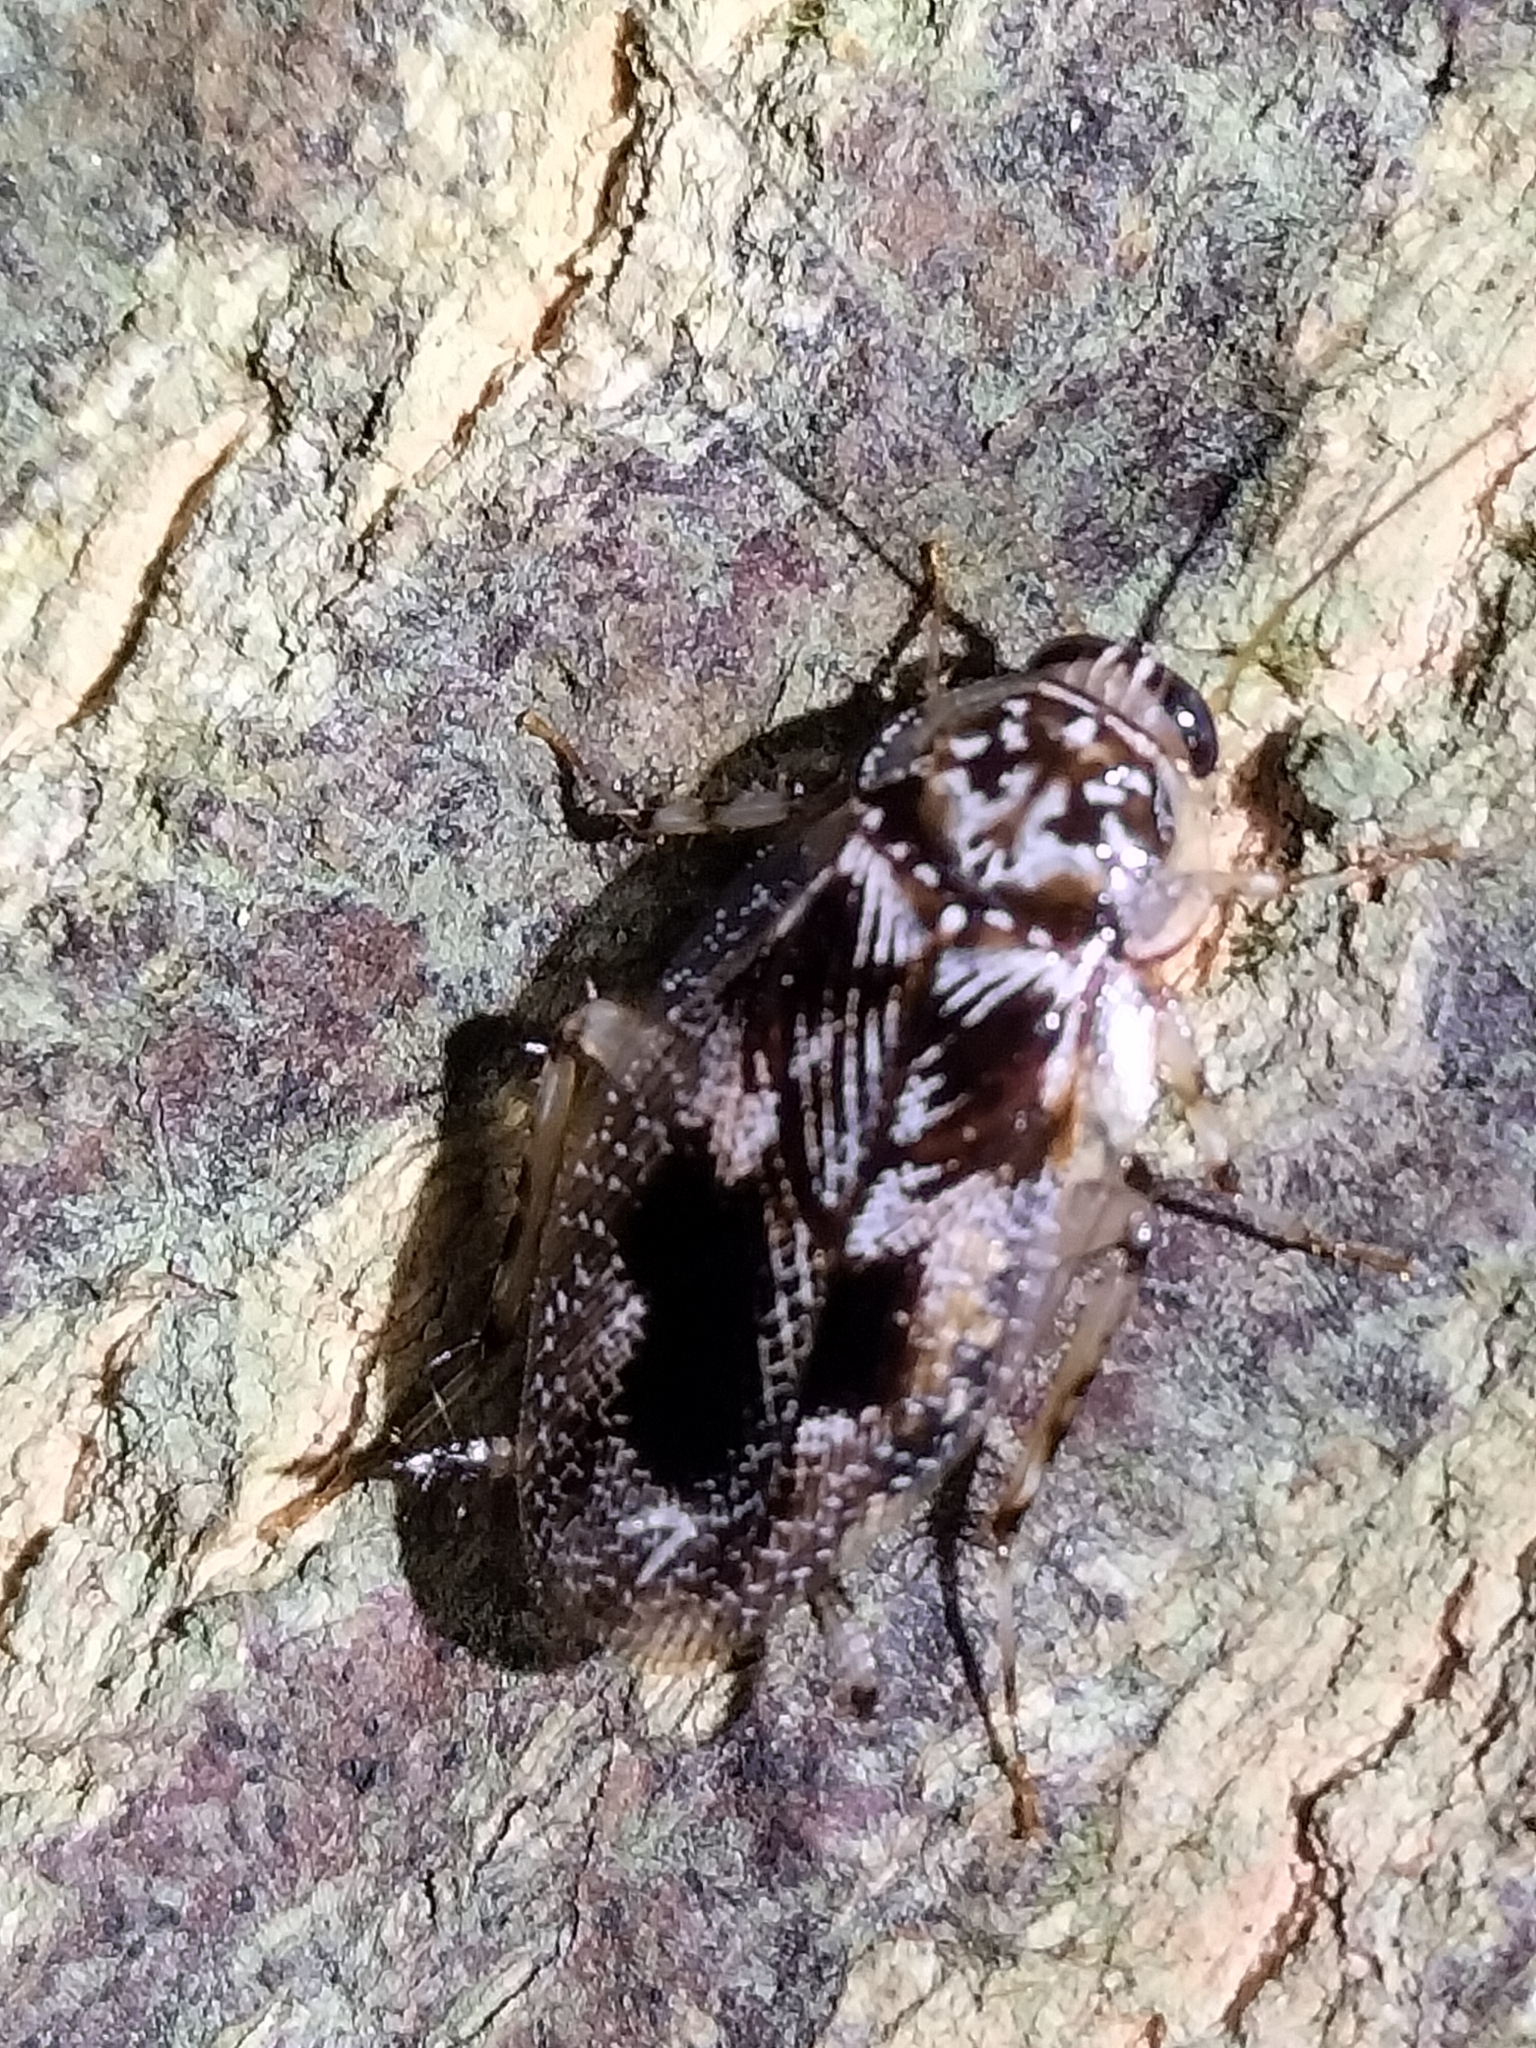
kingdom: Animalia
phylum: Arthropoda
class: Insecta
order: Blattodea
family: Ectobiidae
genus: Allacta
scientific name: Allacta australiensis
